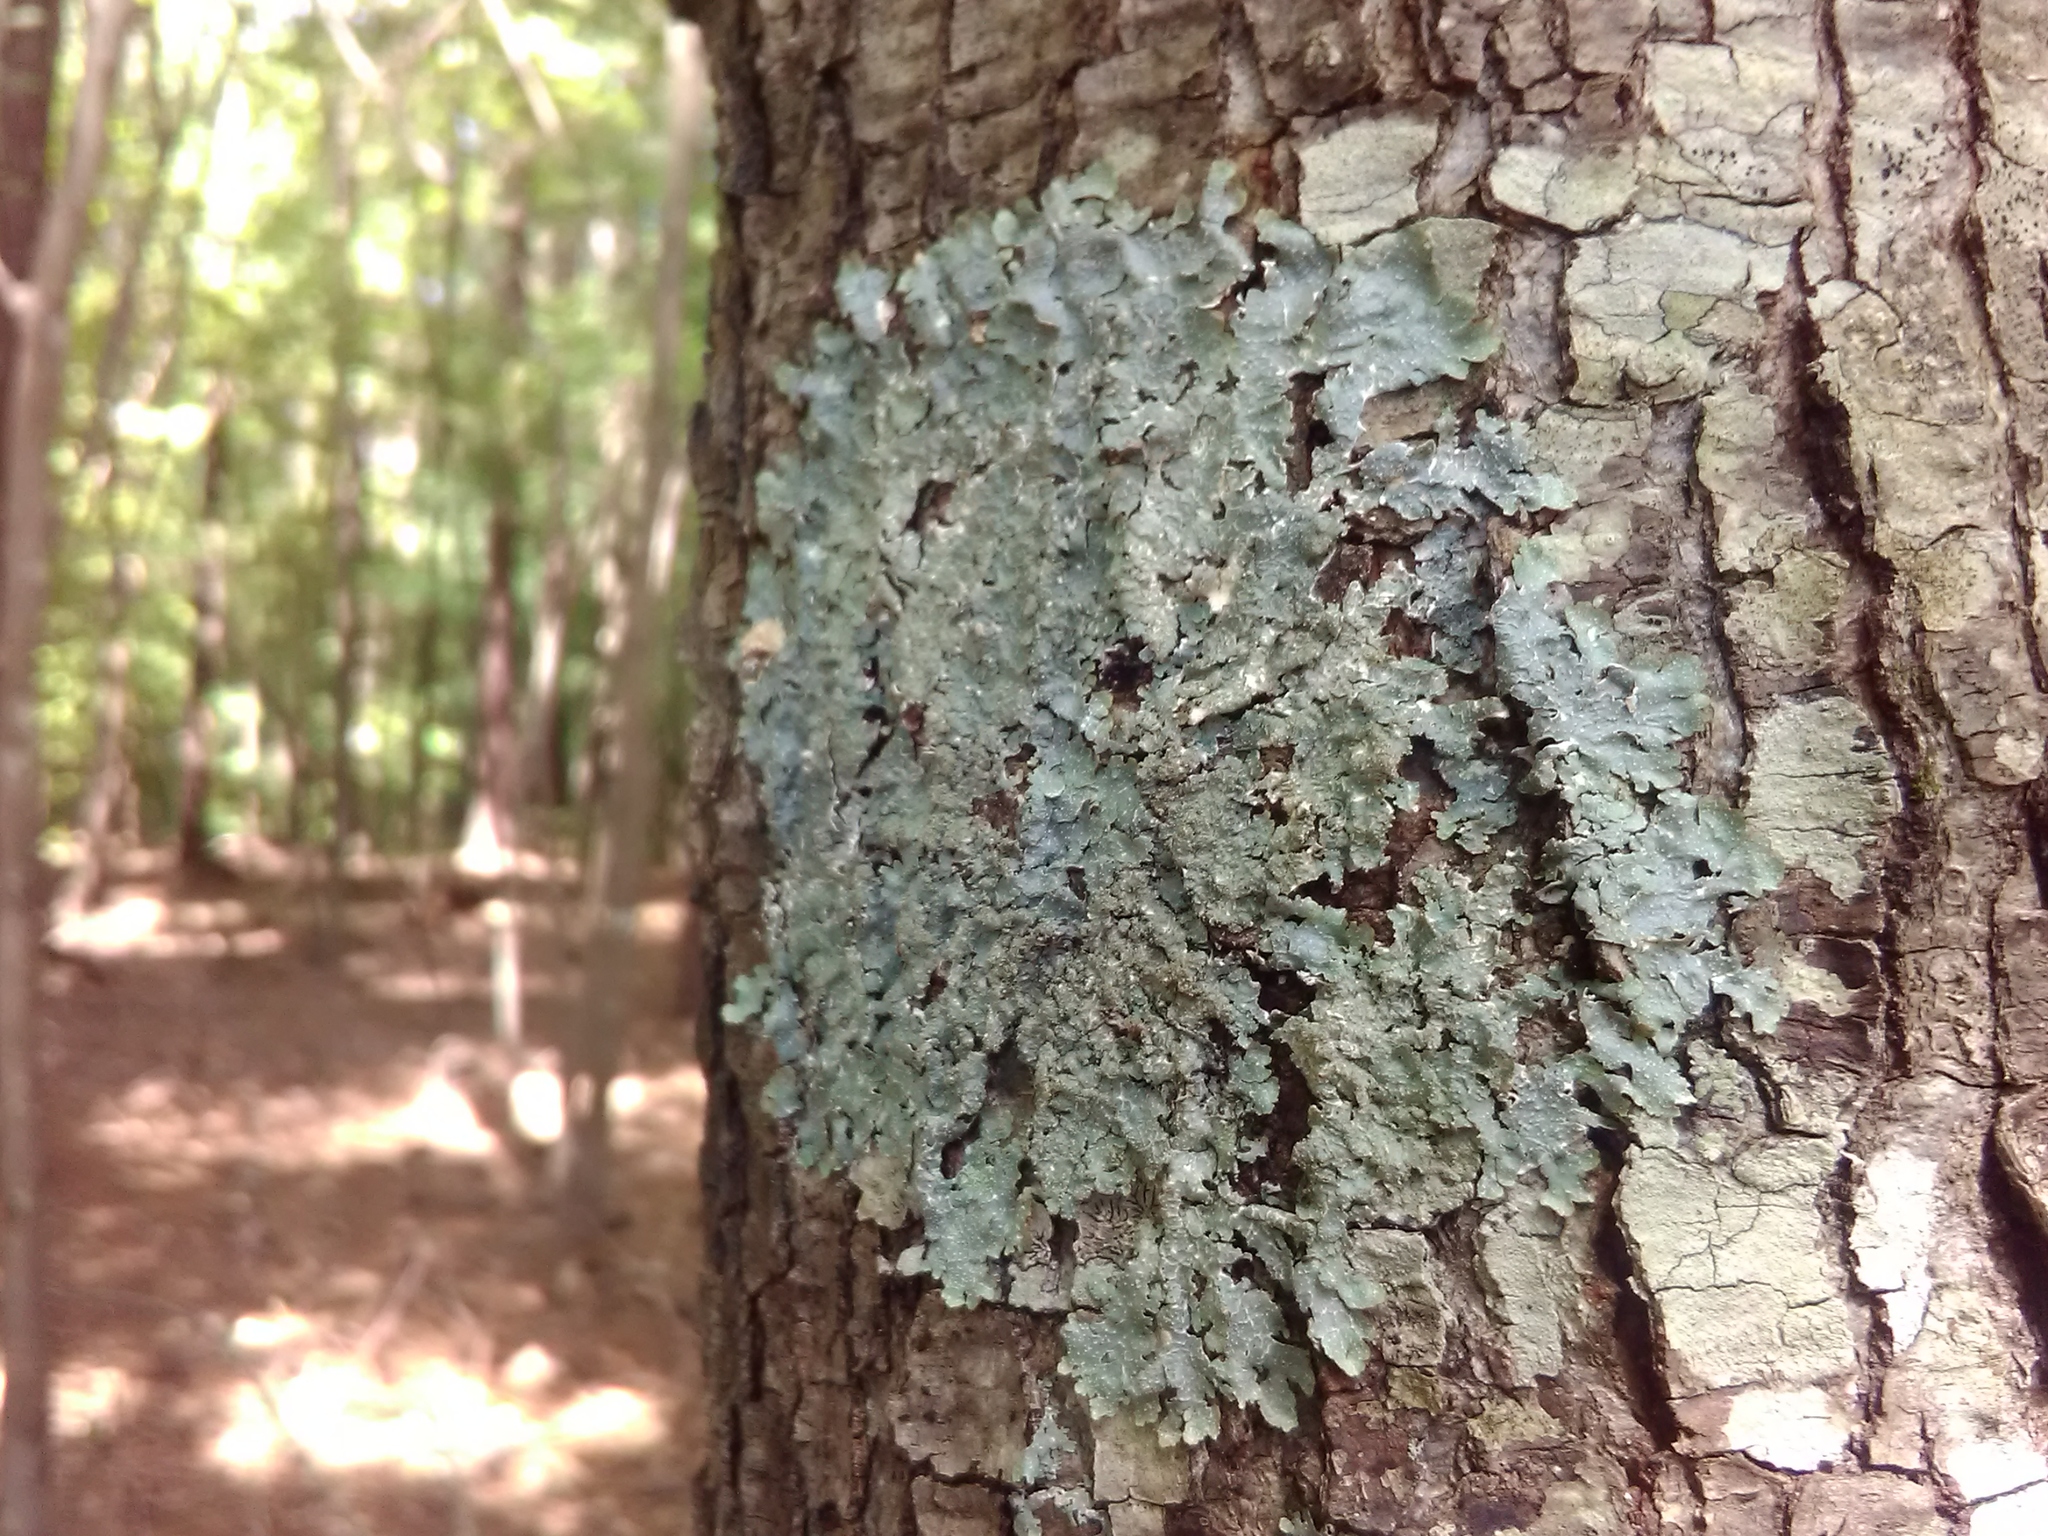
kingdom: Fungi
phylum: Ascomycota
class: Lecanoromycetes
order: Lecanorales
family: Parmeliaceae
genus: Punctelia
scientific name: Punctelia rudecta
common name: Rough speckled shield lichen
